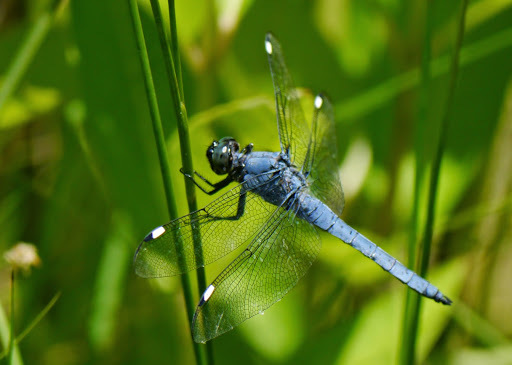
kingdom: Animalia
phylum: Arthropoda
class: Insecta
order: Odonata
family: Libellulidae
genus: Libellula
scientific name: Libellula cyanea
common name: Spangled skimmer
